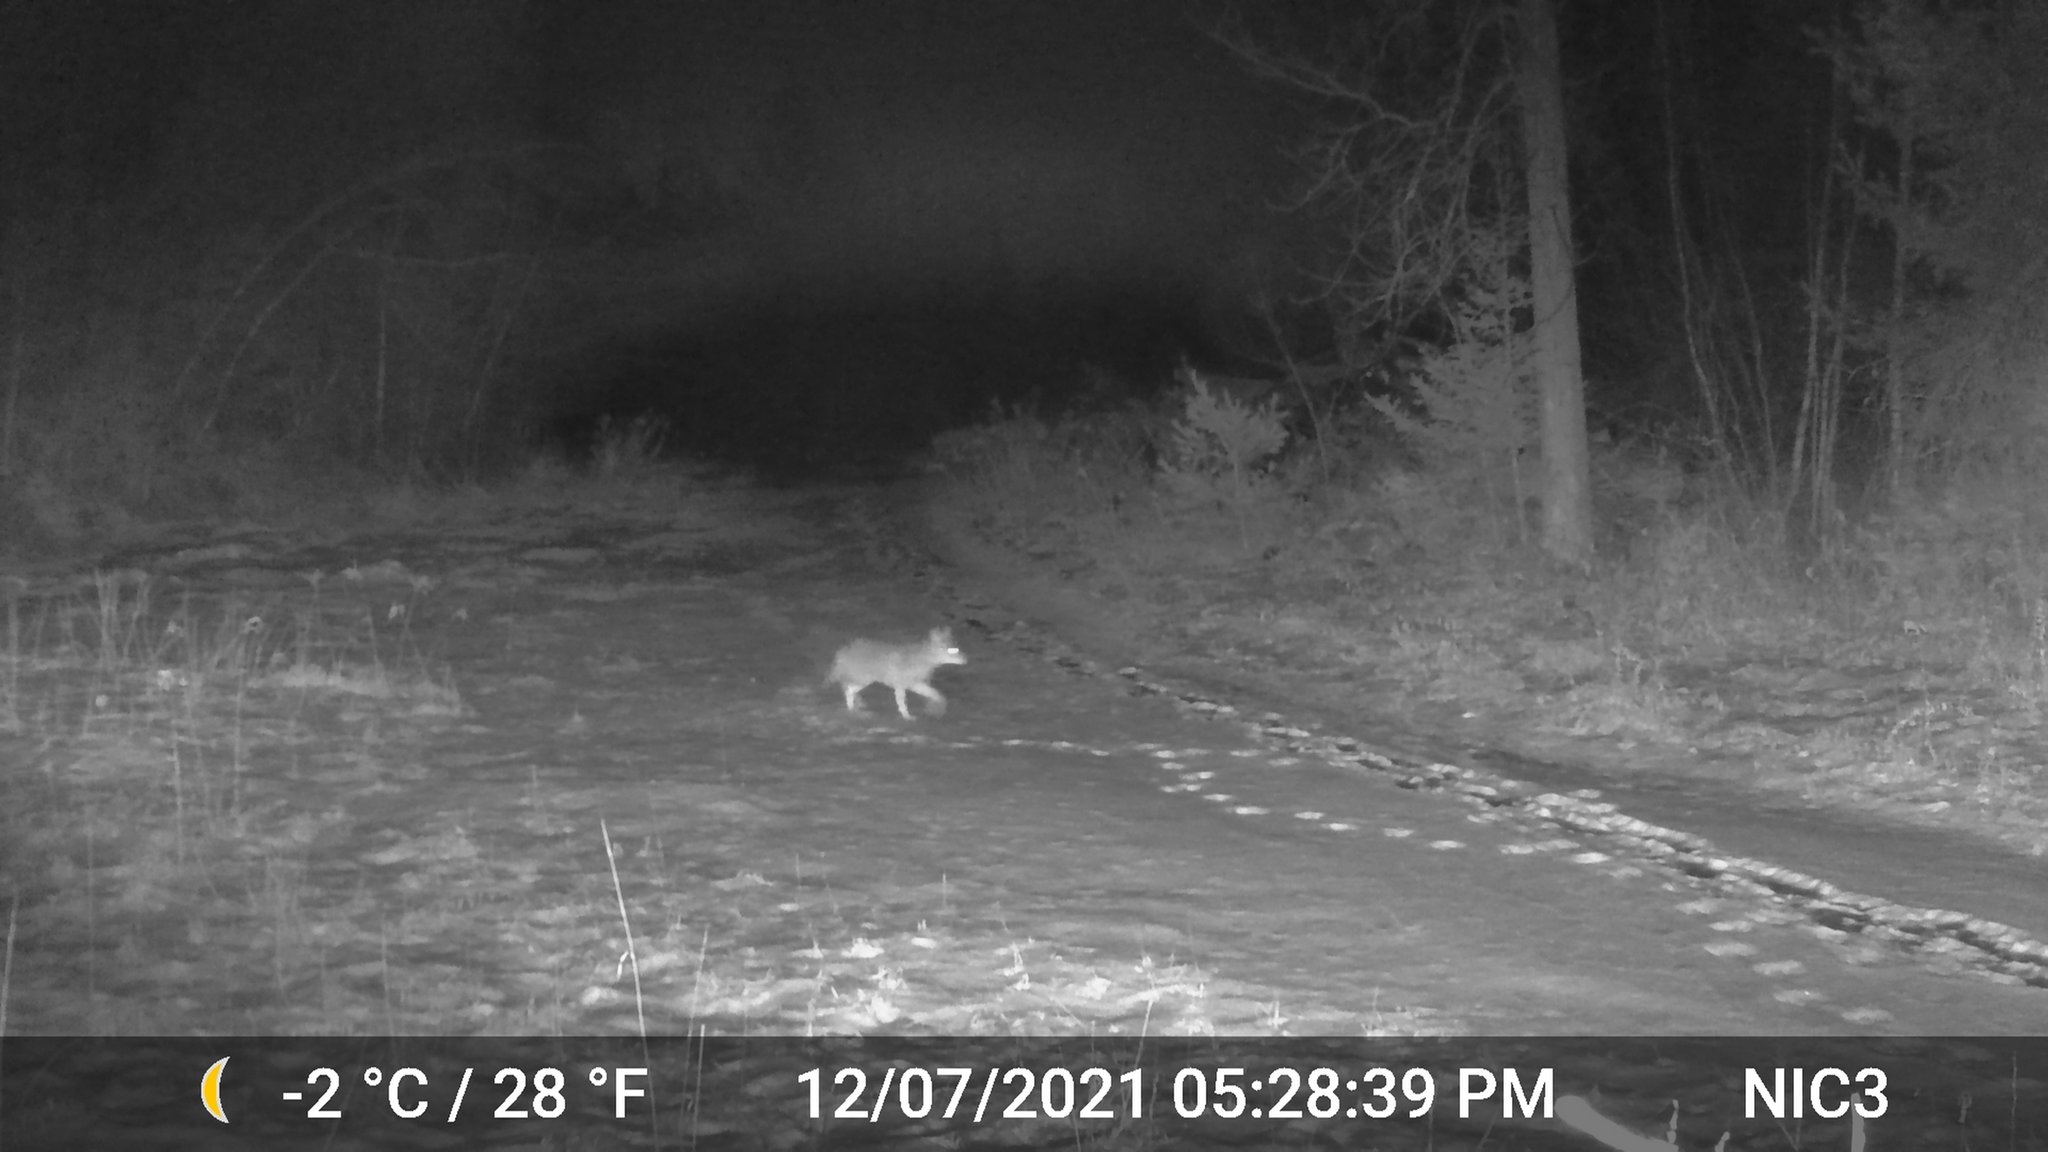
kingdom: Animalia
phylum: Chordata
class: Mammalia
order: Carnivora
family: Canidae
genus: Canis
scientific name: Canis latrans
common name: Coyote
